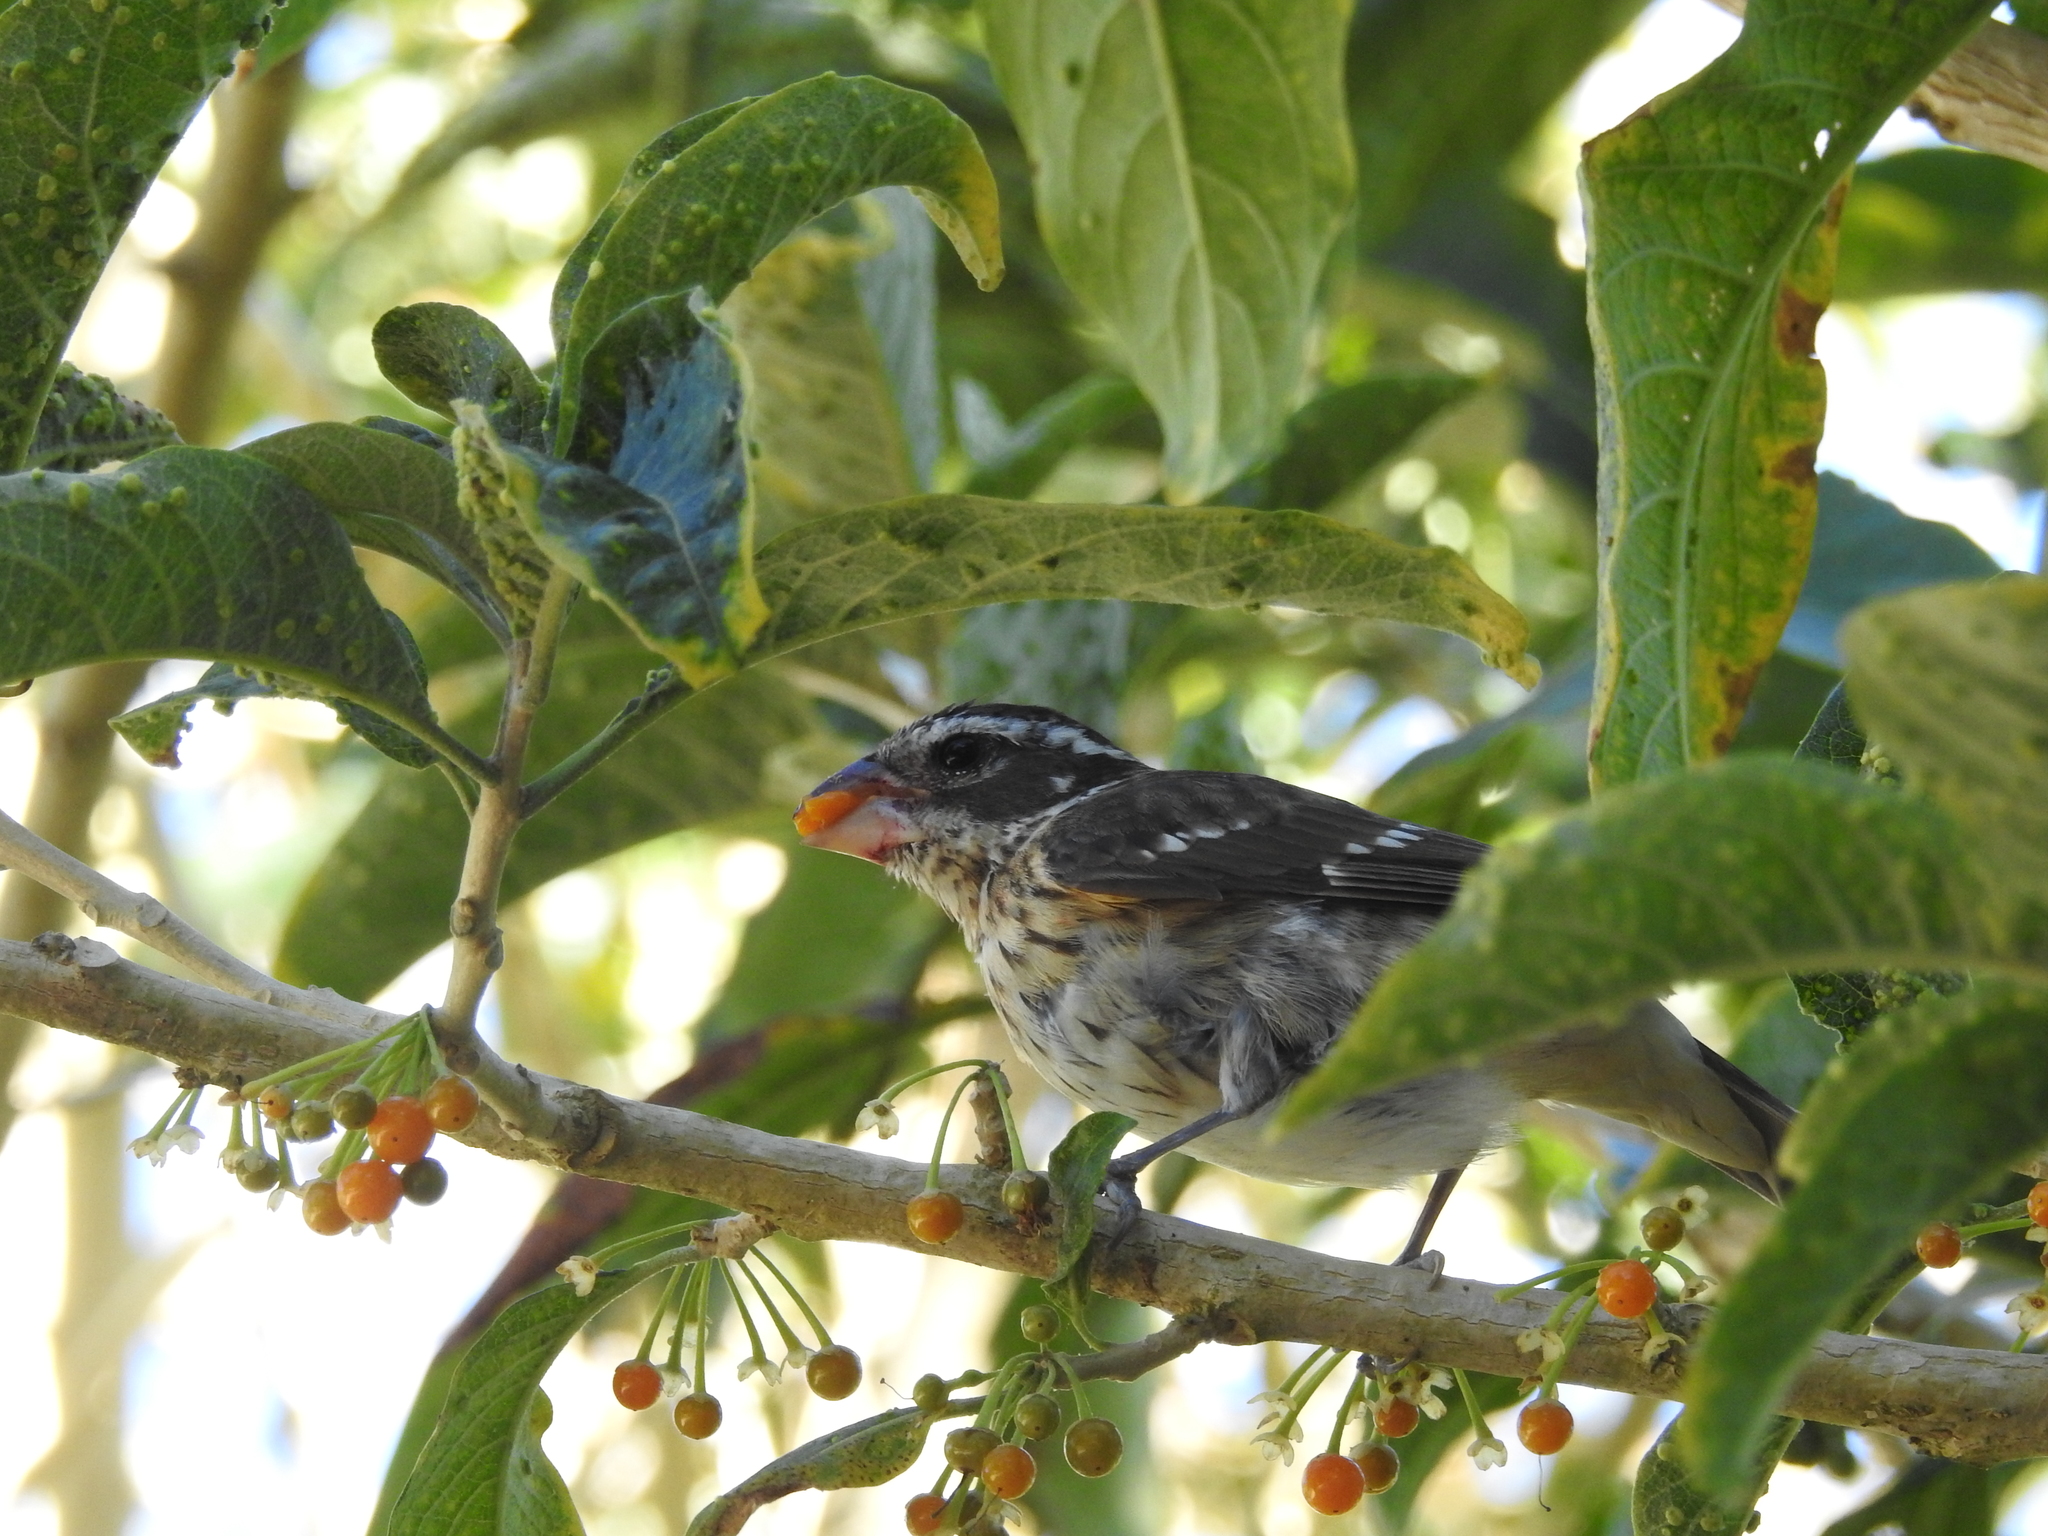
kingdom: Animalia
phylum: Chordata
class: Aves
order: Passeriformes
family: Cardinalidae
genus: Pheucticus
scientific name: Pheucticus ludovicianus
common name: Rose-breasted grosbeak
